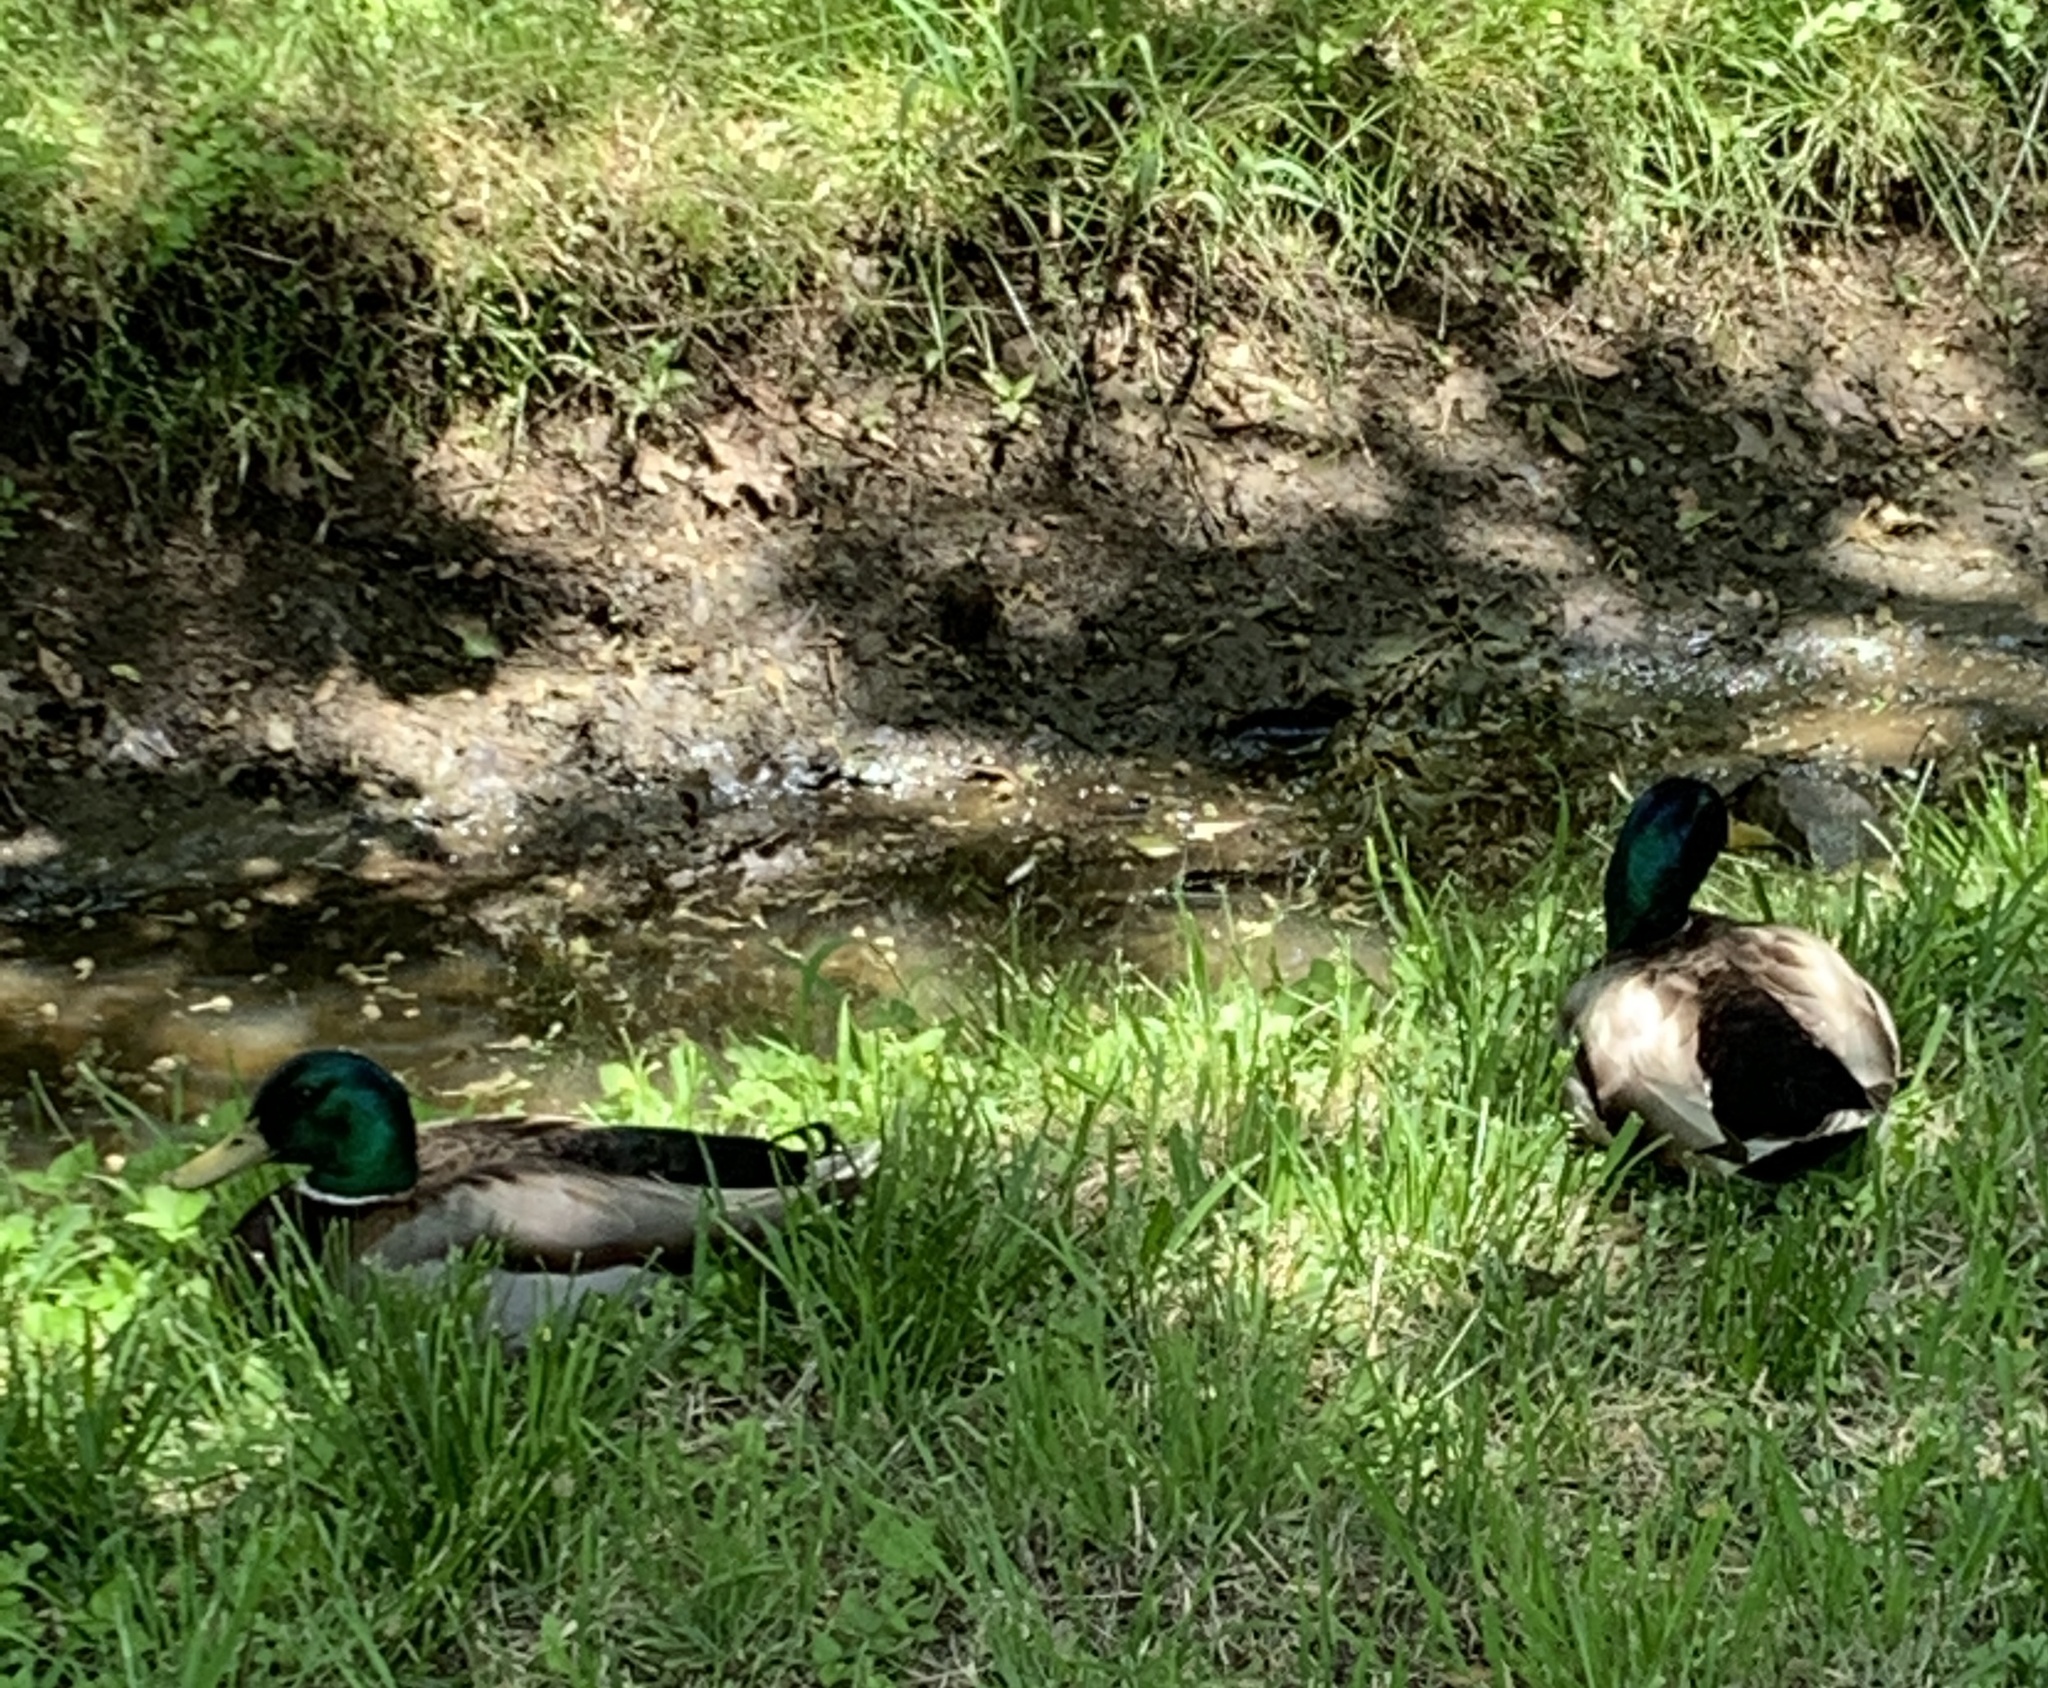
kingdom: Animalia
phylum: Chordata
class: Aves
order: Anseriformes
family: Anatidae
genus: Anas
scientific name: Anas platyrhynchos
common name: Mallard
